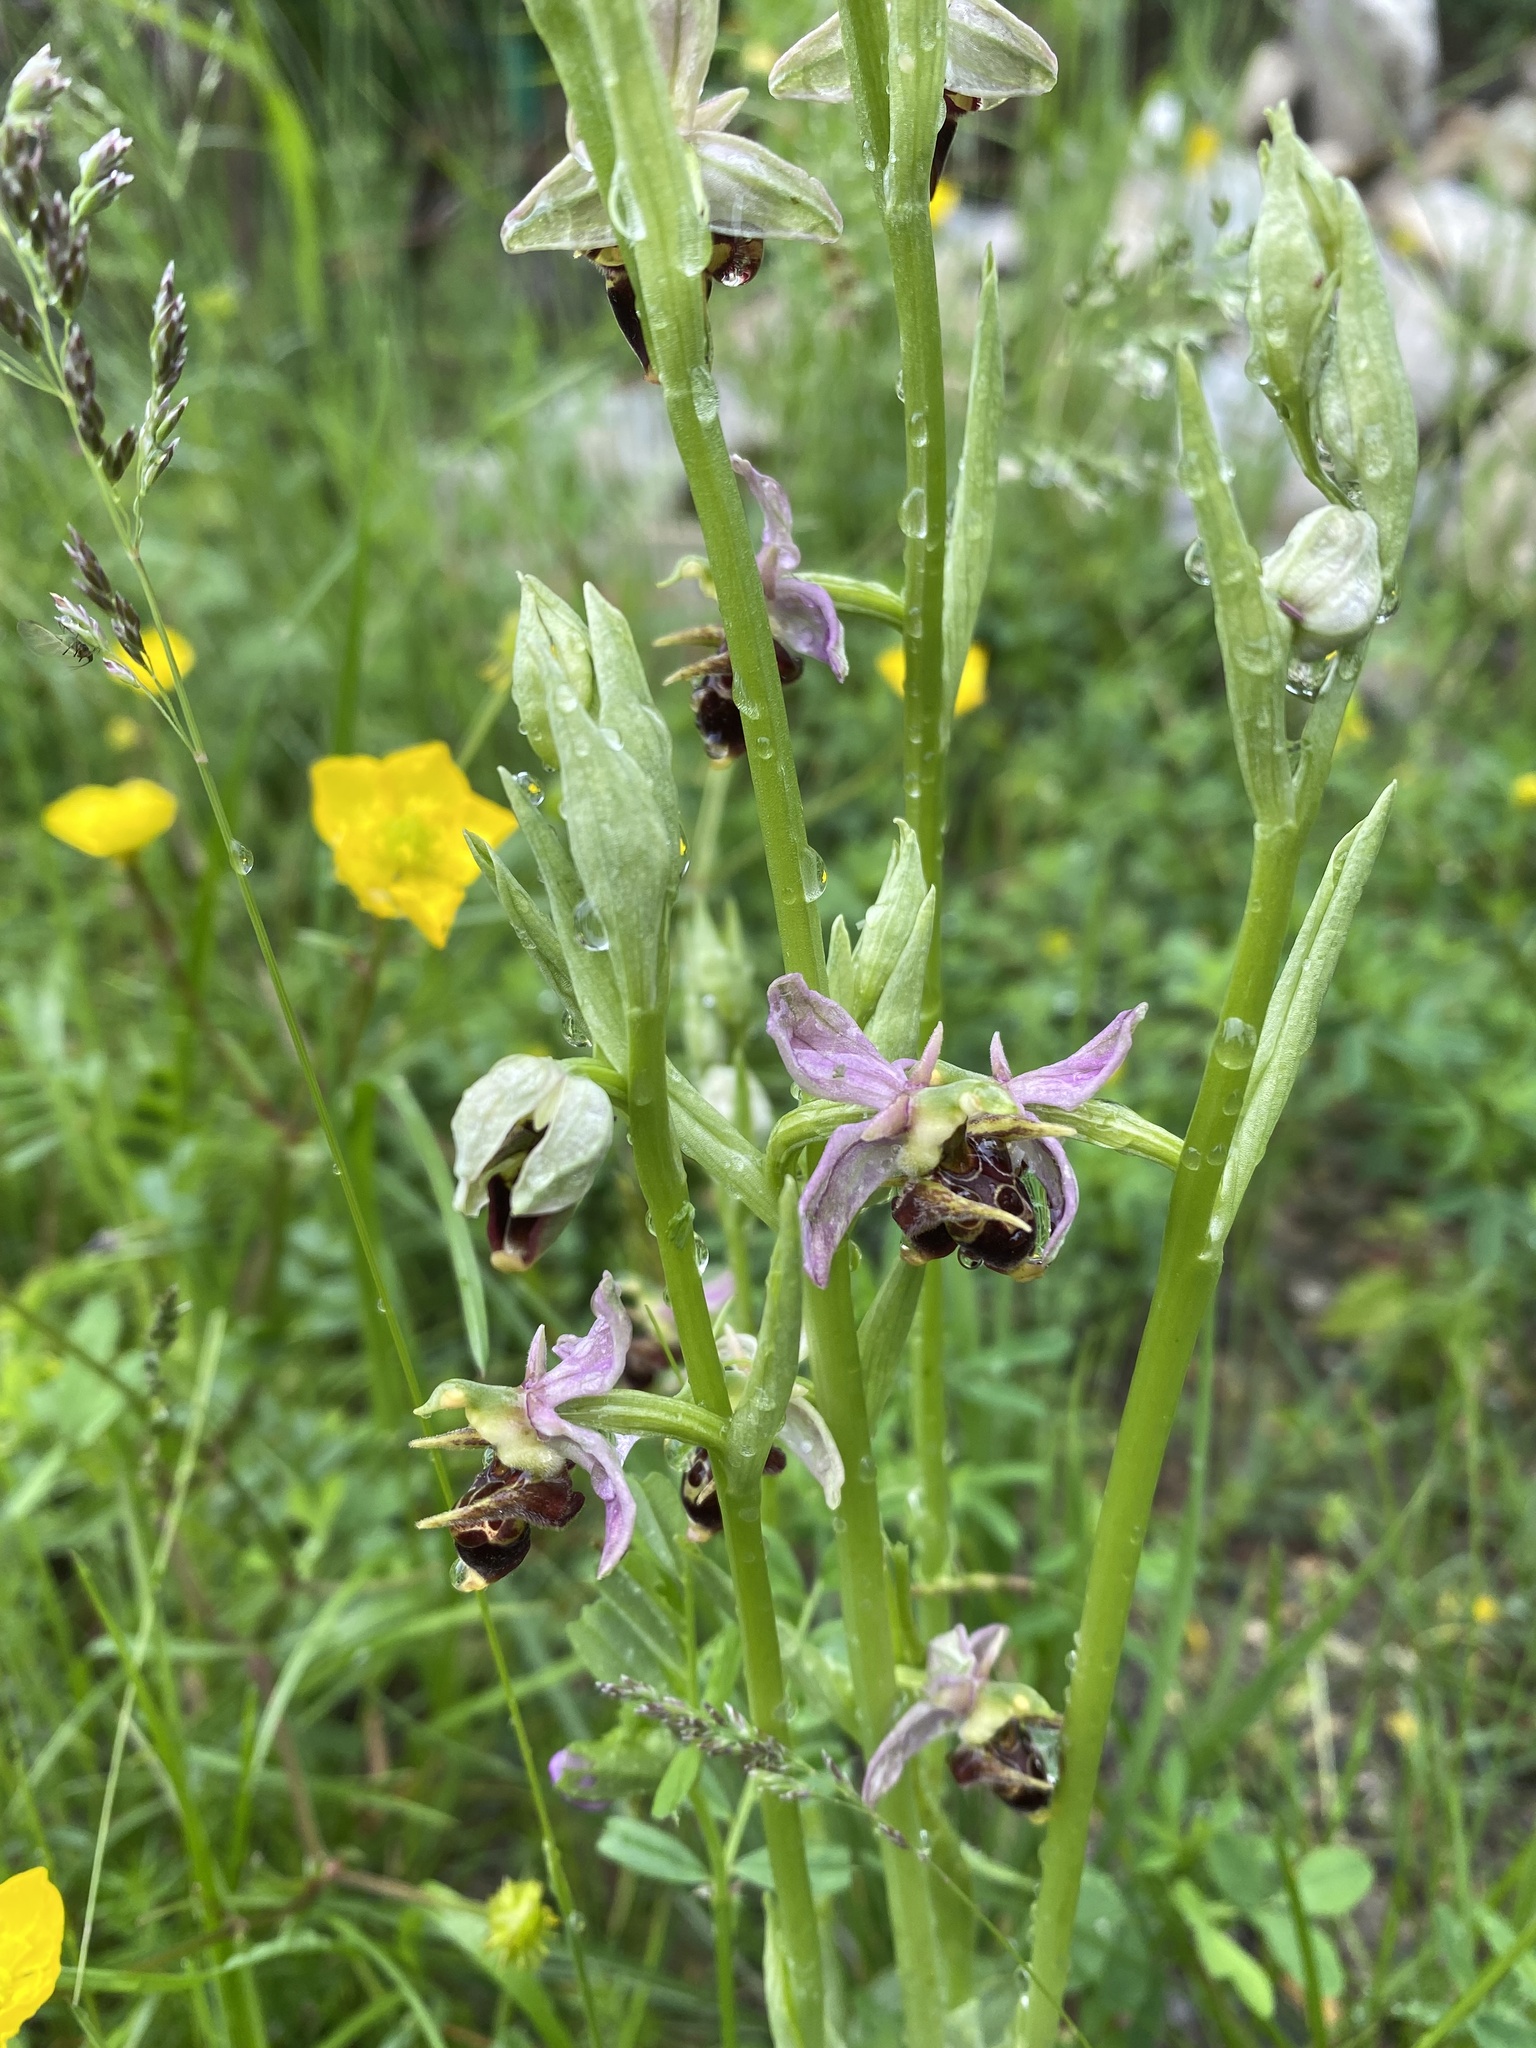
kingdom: Plantae
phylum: Tracheophyta
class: Liliopsida
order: Asparagales
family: Orchidaceae
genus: Ophrys
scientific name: Ophrys
